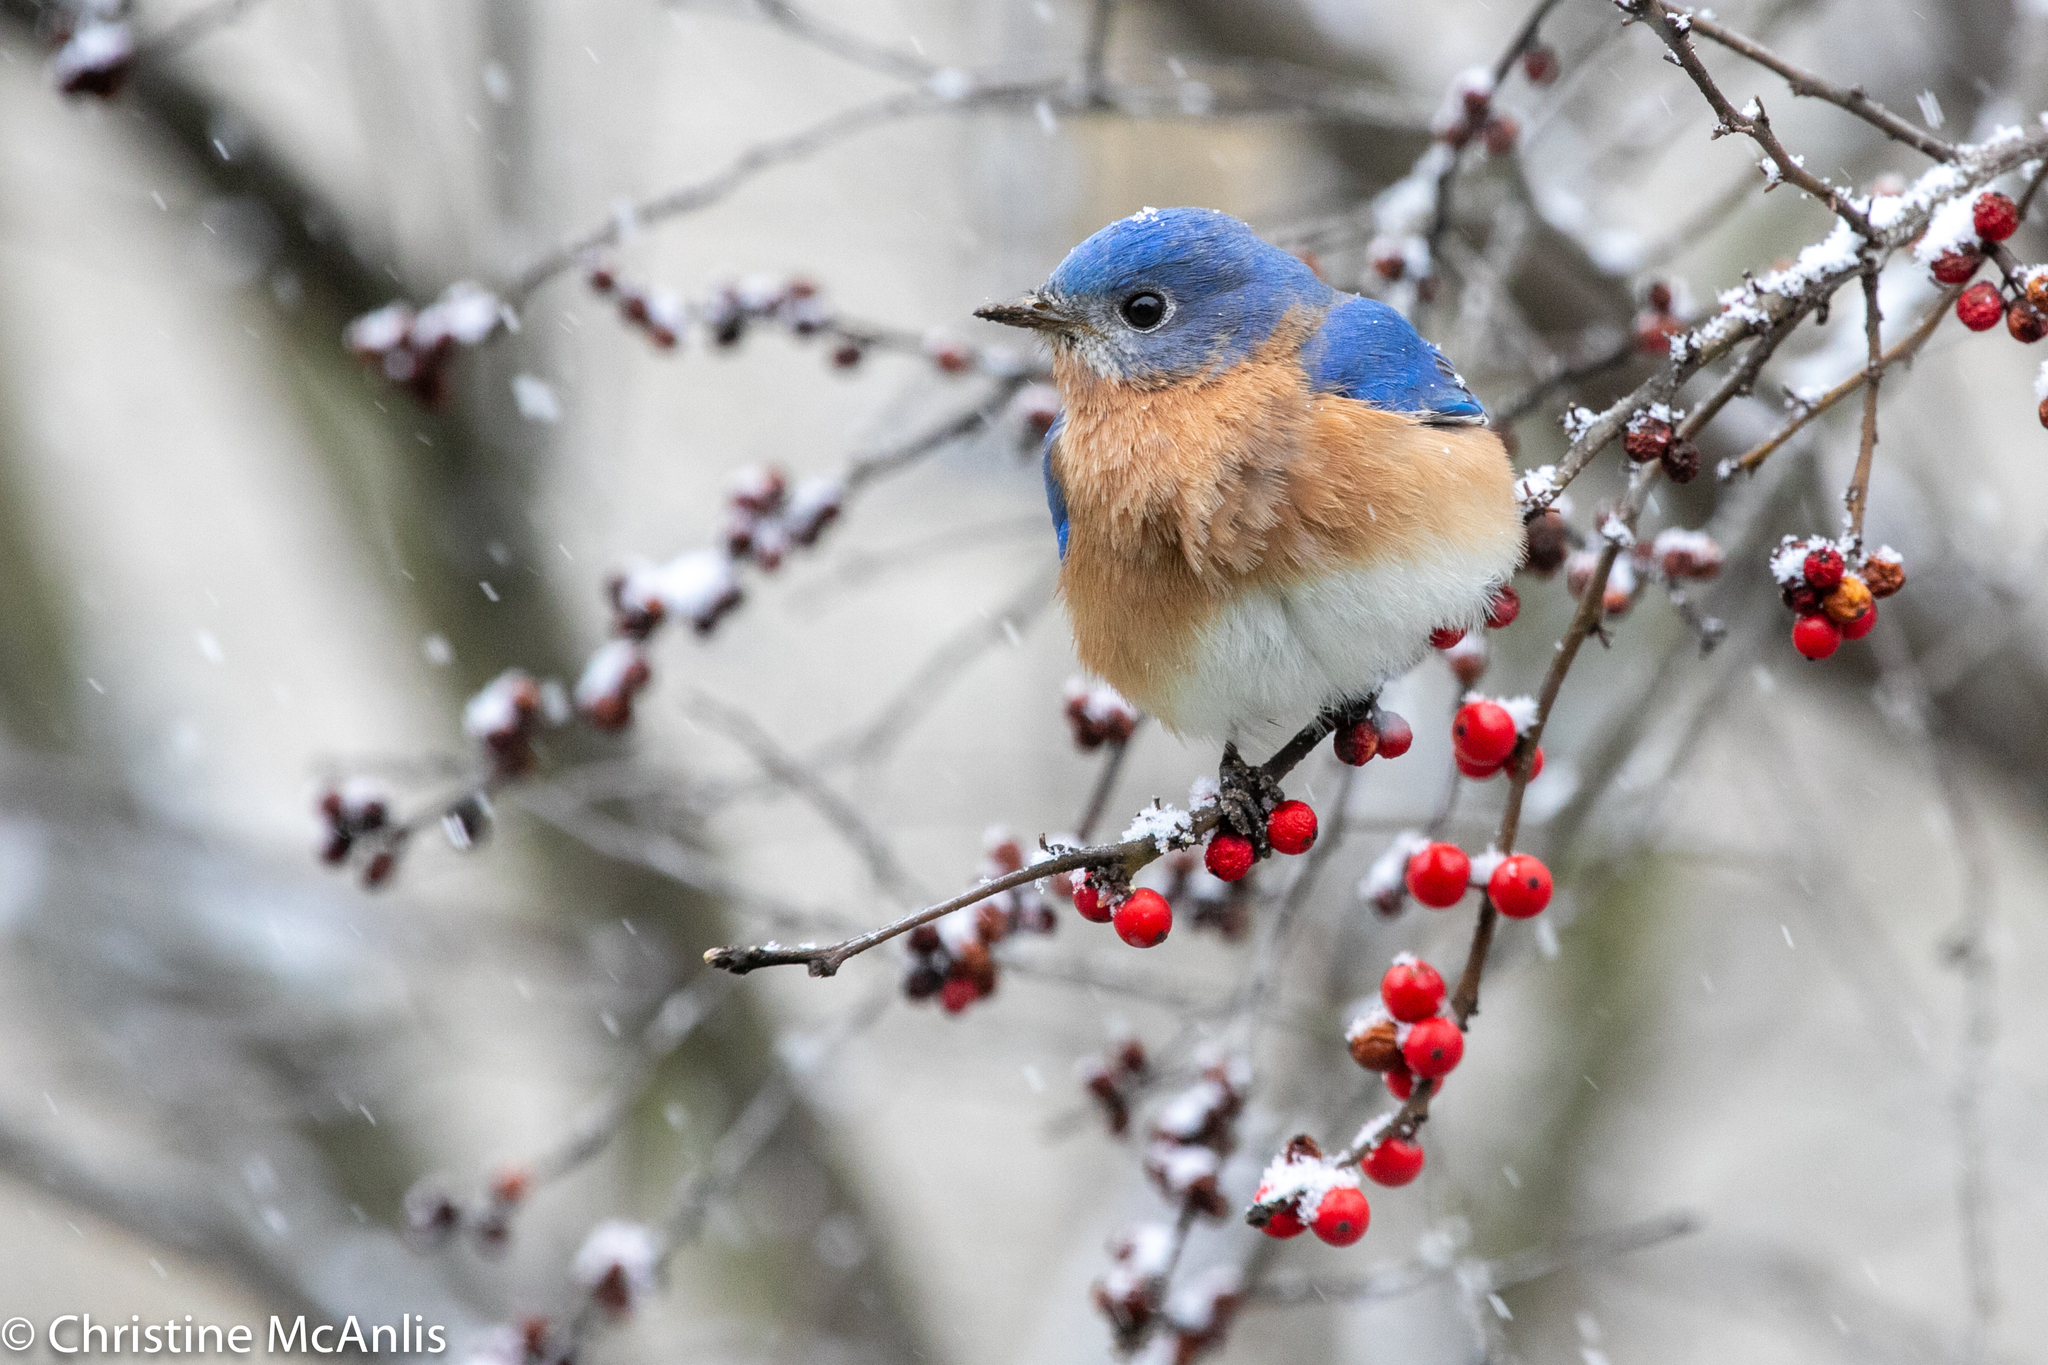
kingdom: Animalia
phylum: Chordata
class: Aves
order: Passeriformes
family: Turdidae
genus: Sialia
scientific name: Sialia sialis
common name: Eastern bluebird
